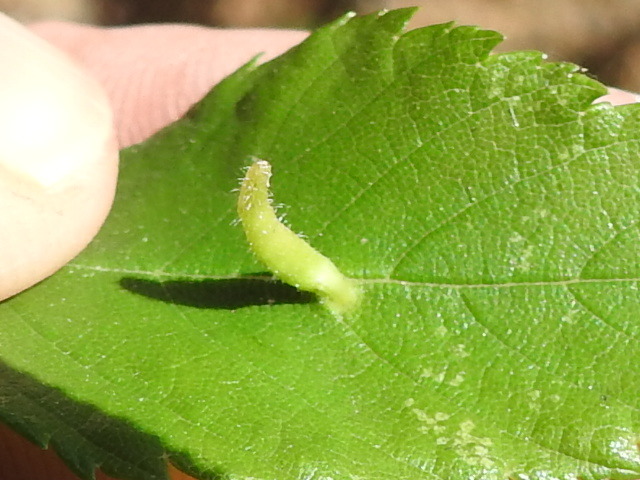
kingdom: Animalia
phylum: Arthropoda
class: Arachnida
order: Trombidiformes
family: Eriophyidae
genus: Aceria
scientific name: Aceria
